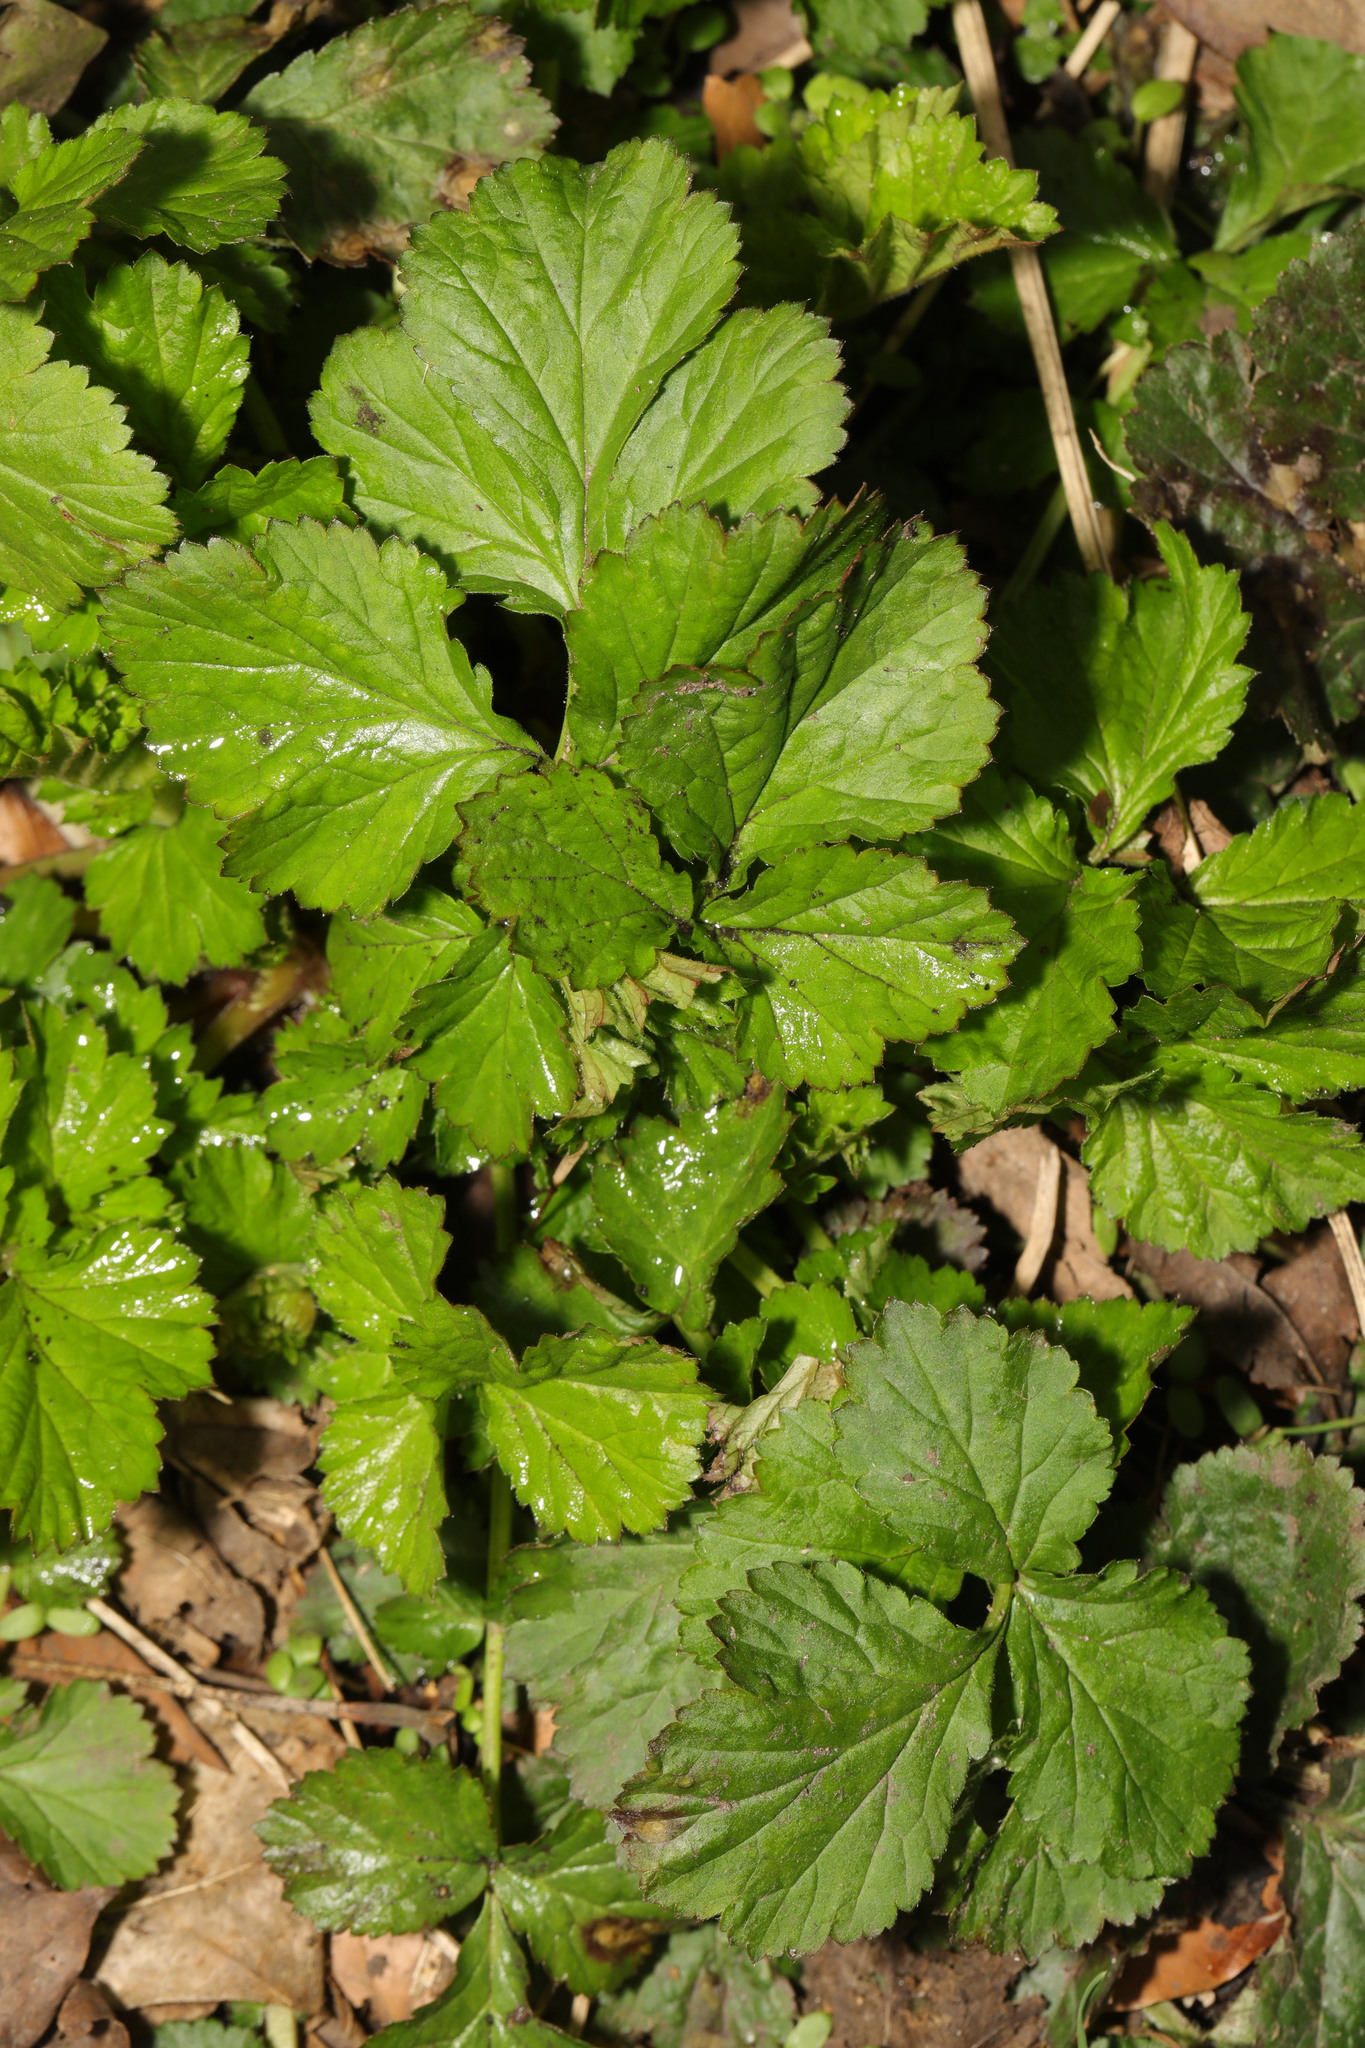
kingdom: Plantae
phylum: Tracheophyta
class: Magnoliopsida
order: Rosales
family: Rosaceae
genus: Geum
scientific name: Geum urbanum
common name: Wood avens
